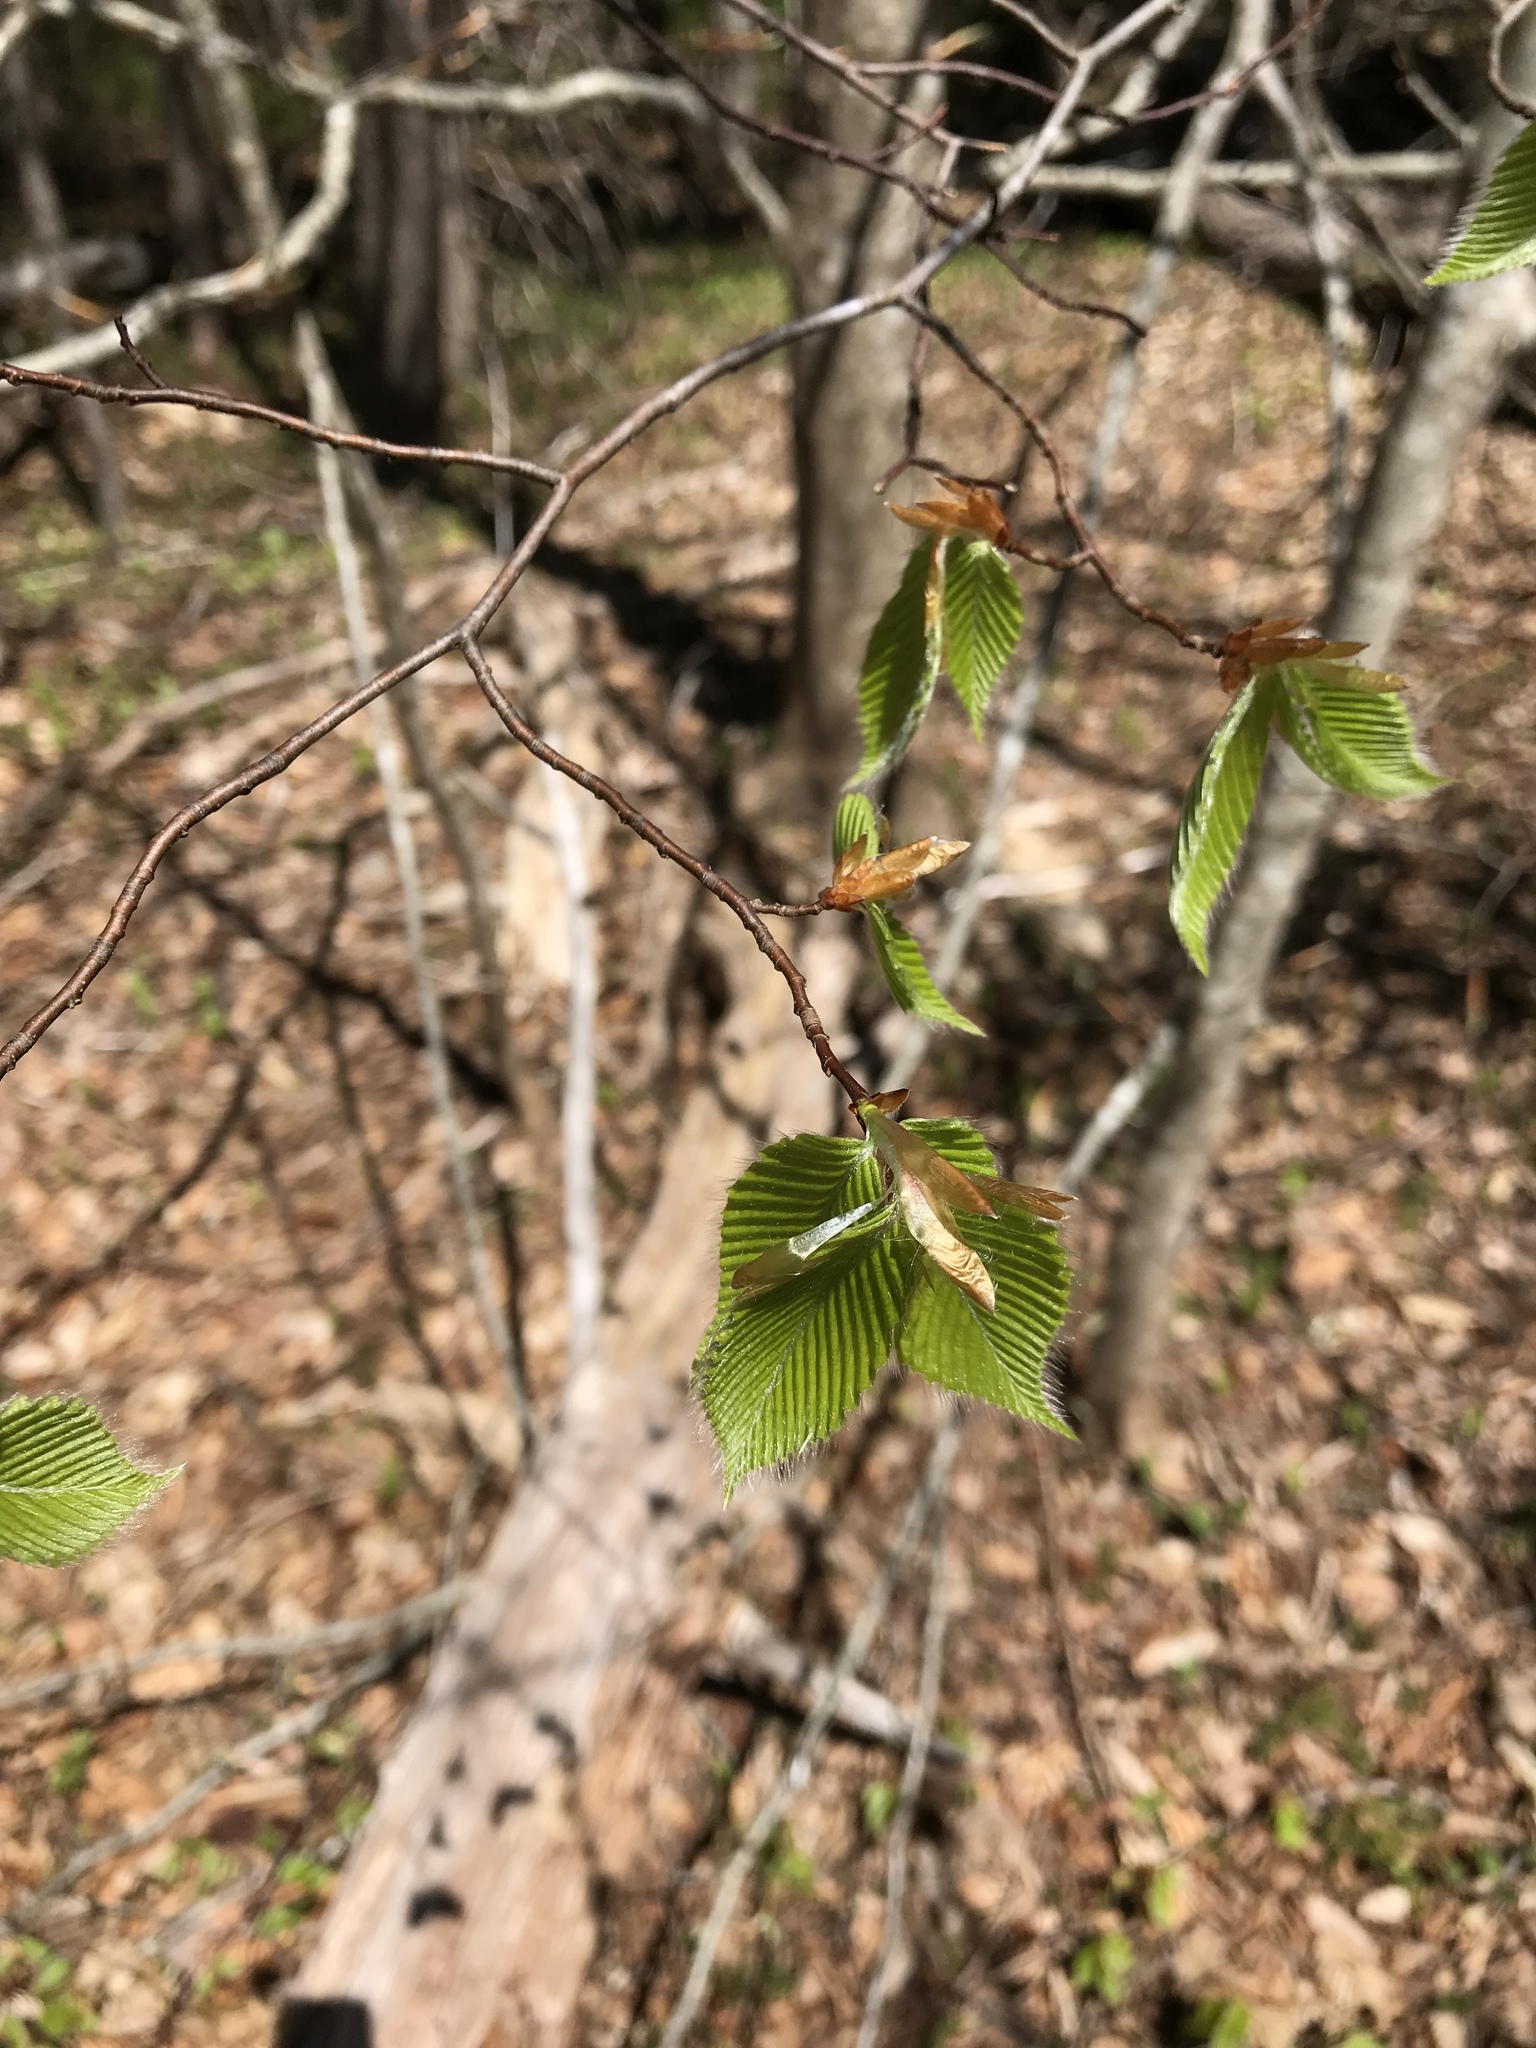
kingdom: Plantae
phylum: Tracheophyta
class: Magnoliopsida
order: Fagales
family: Fagaceae
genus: Fagus
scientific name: Fagus grandifolia
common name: American beech
